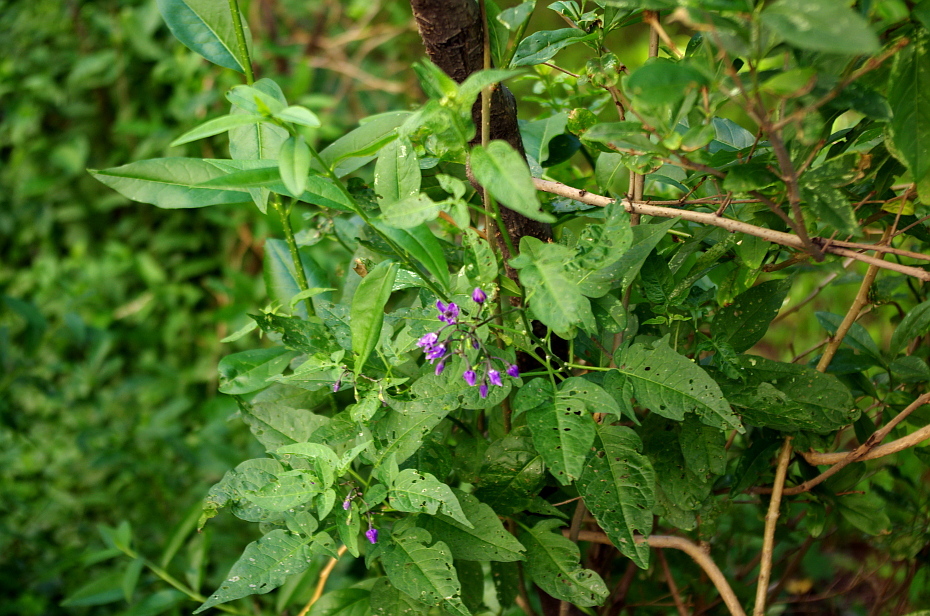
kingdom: Plantae
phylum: Tracheophyta
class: Magnoliopsida
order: Solanales
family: Solanaceae
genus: Solanum
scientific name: Solanum dulcamara
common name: Climbing nightshade
